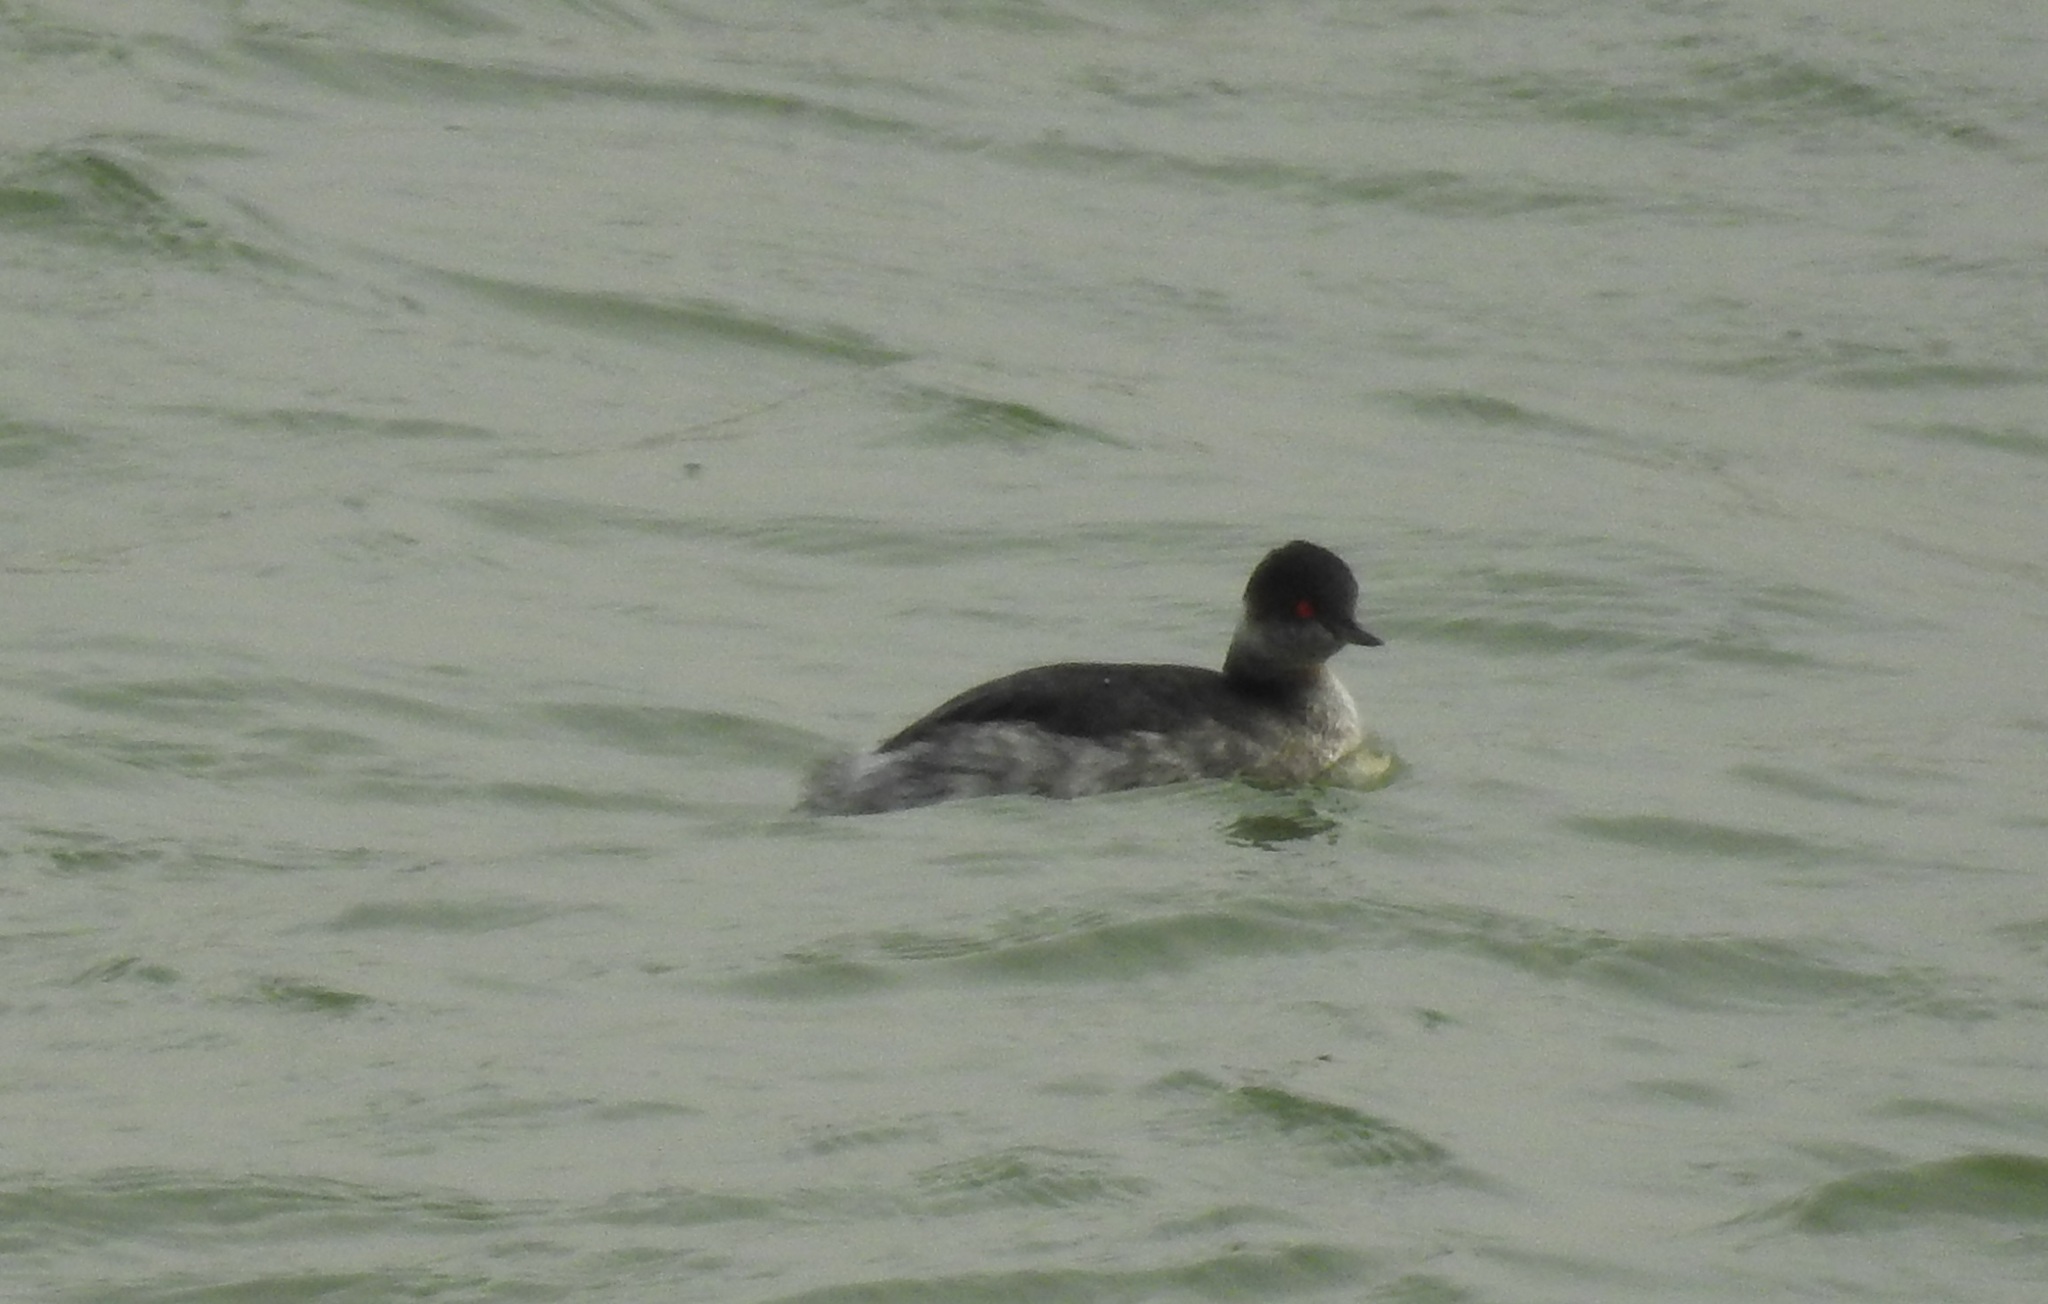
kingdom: Animalia
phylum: Chordata
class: Aves
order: Podicipediformes
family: Podicipedidae
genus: Podiceps
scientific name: Podiceps nigricollis
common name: Black-necked grebe
